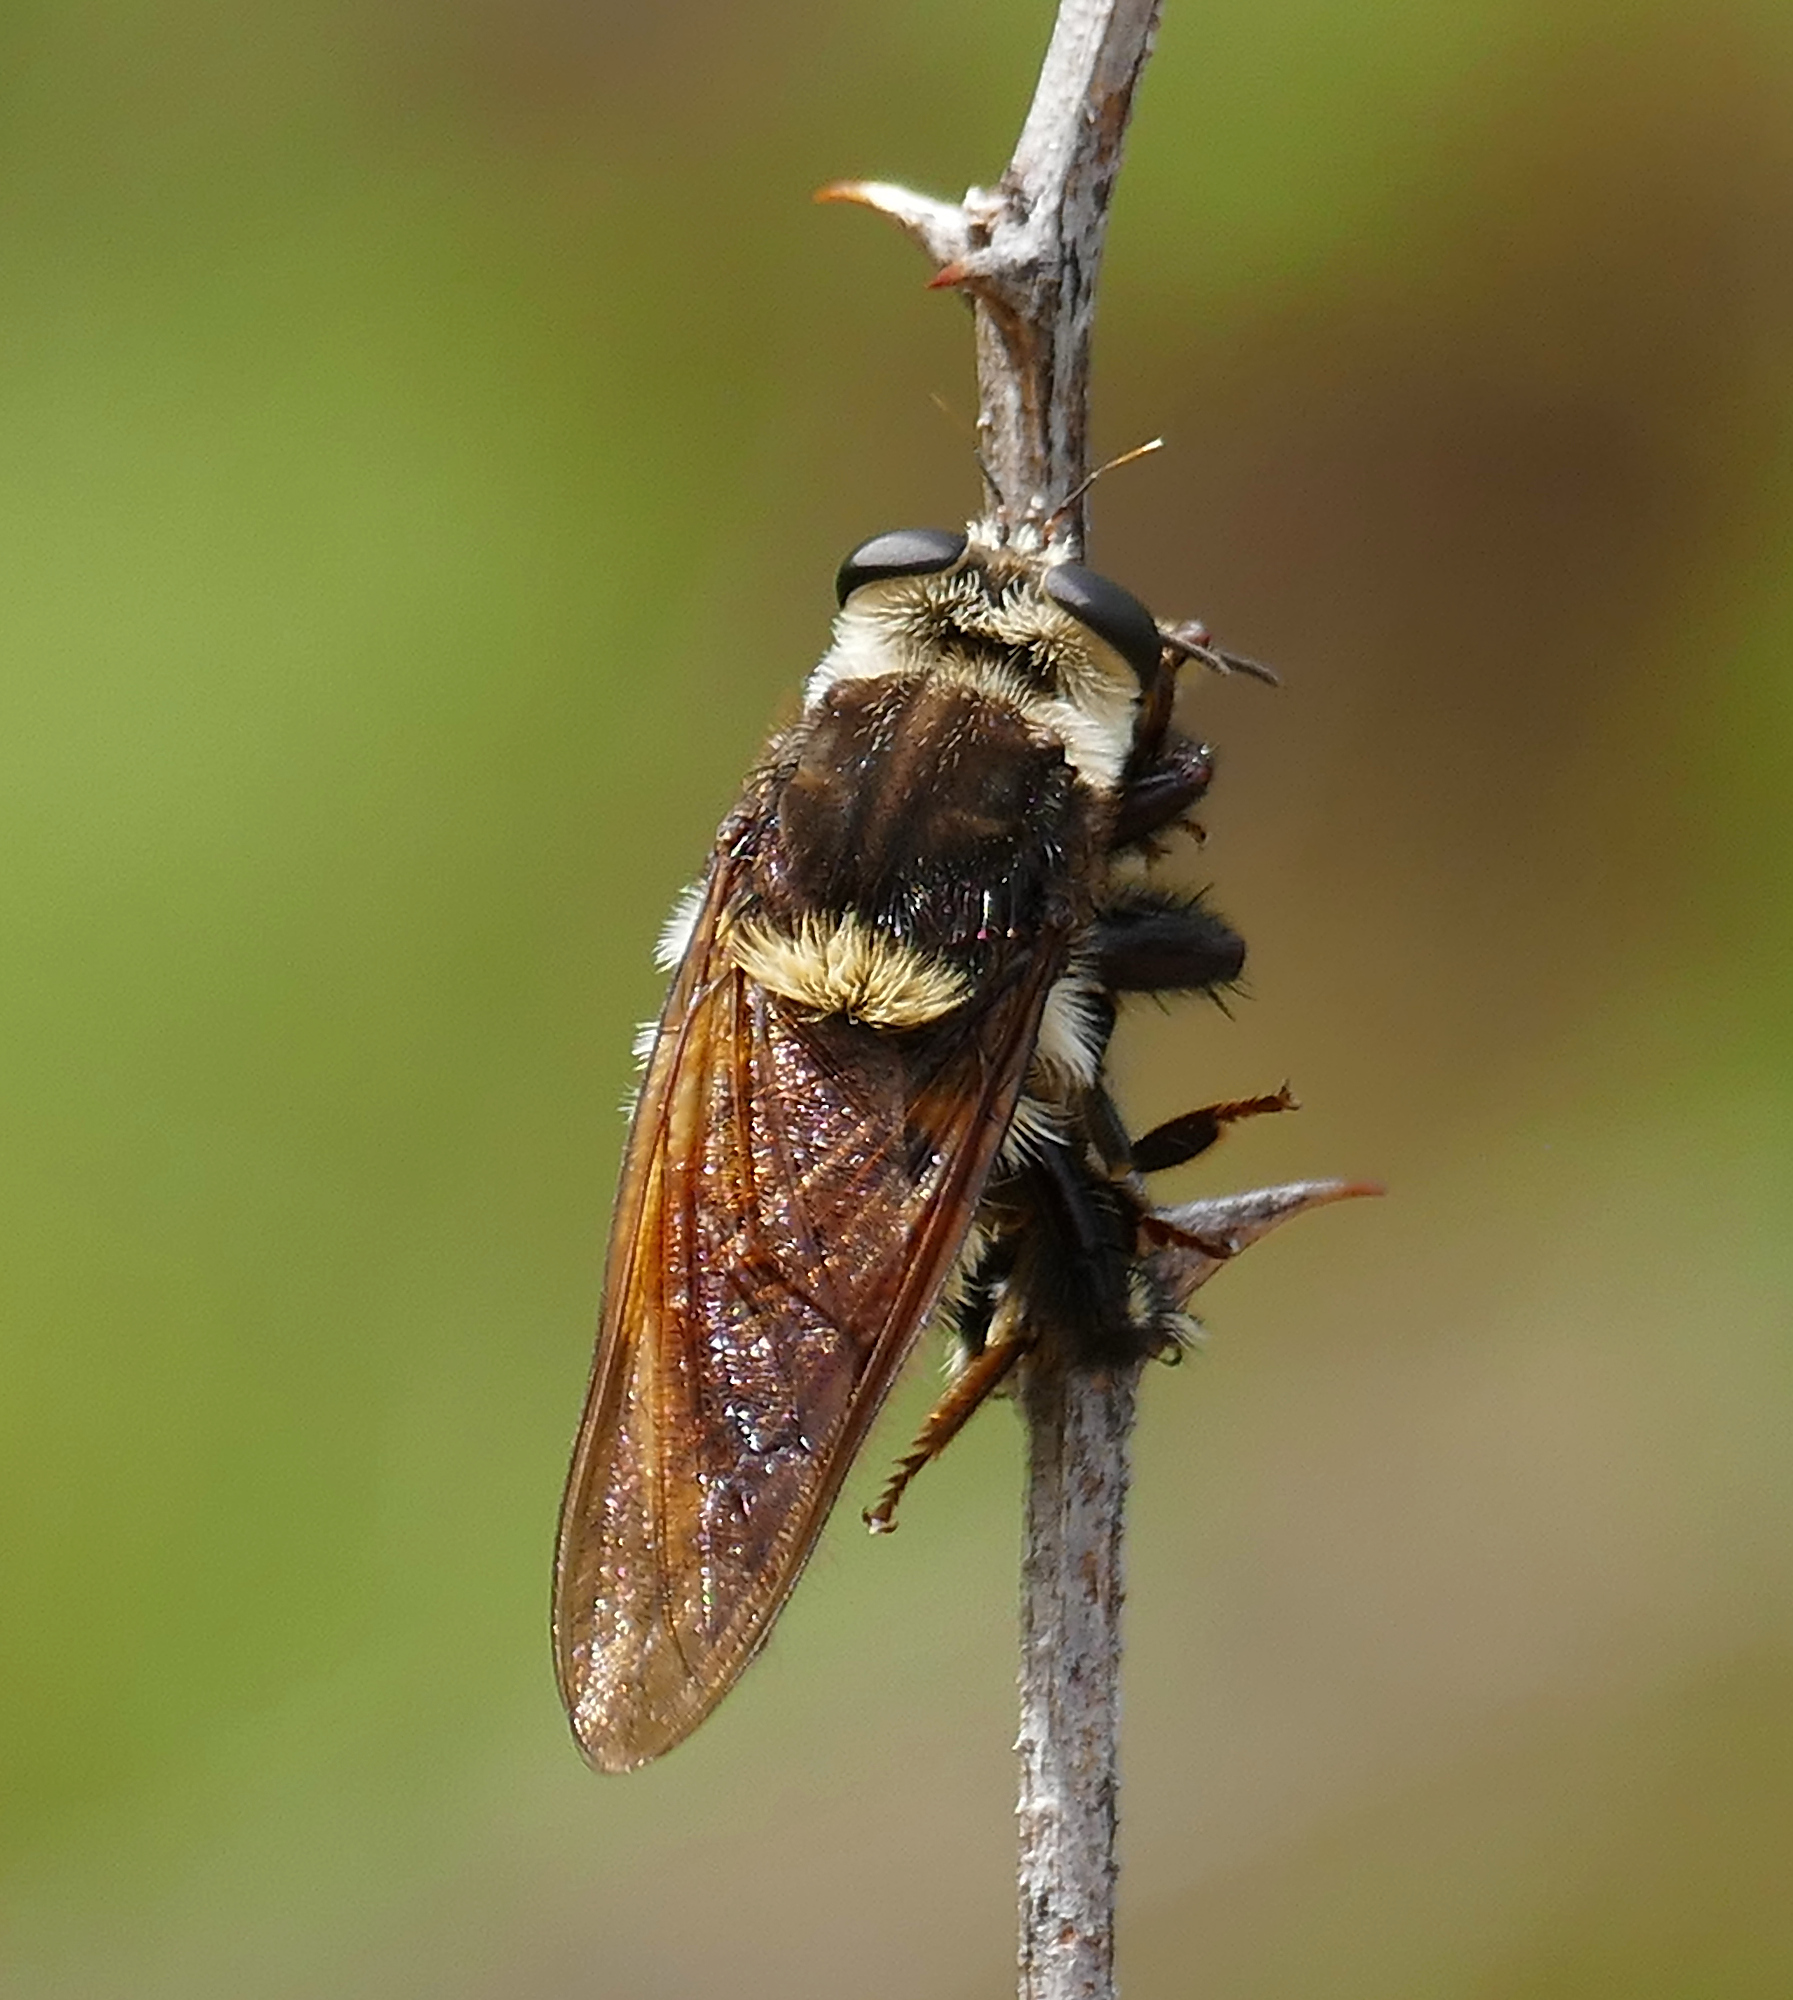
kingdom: Animalia
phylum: Arthropoda
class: Insecta
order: Diptera
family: Asilidae
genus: Mallophora
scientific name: Mallophora fautrix
